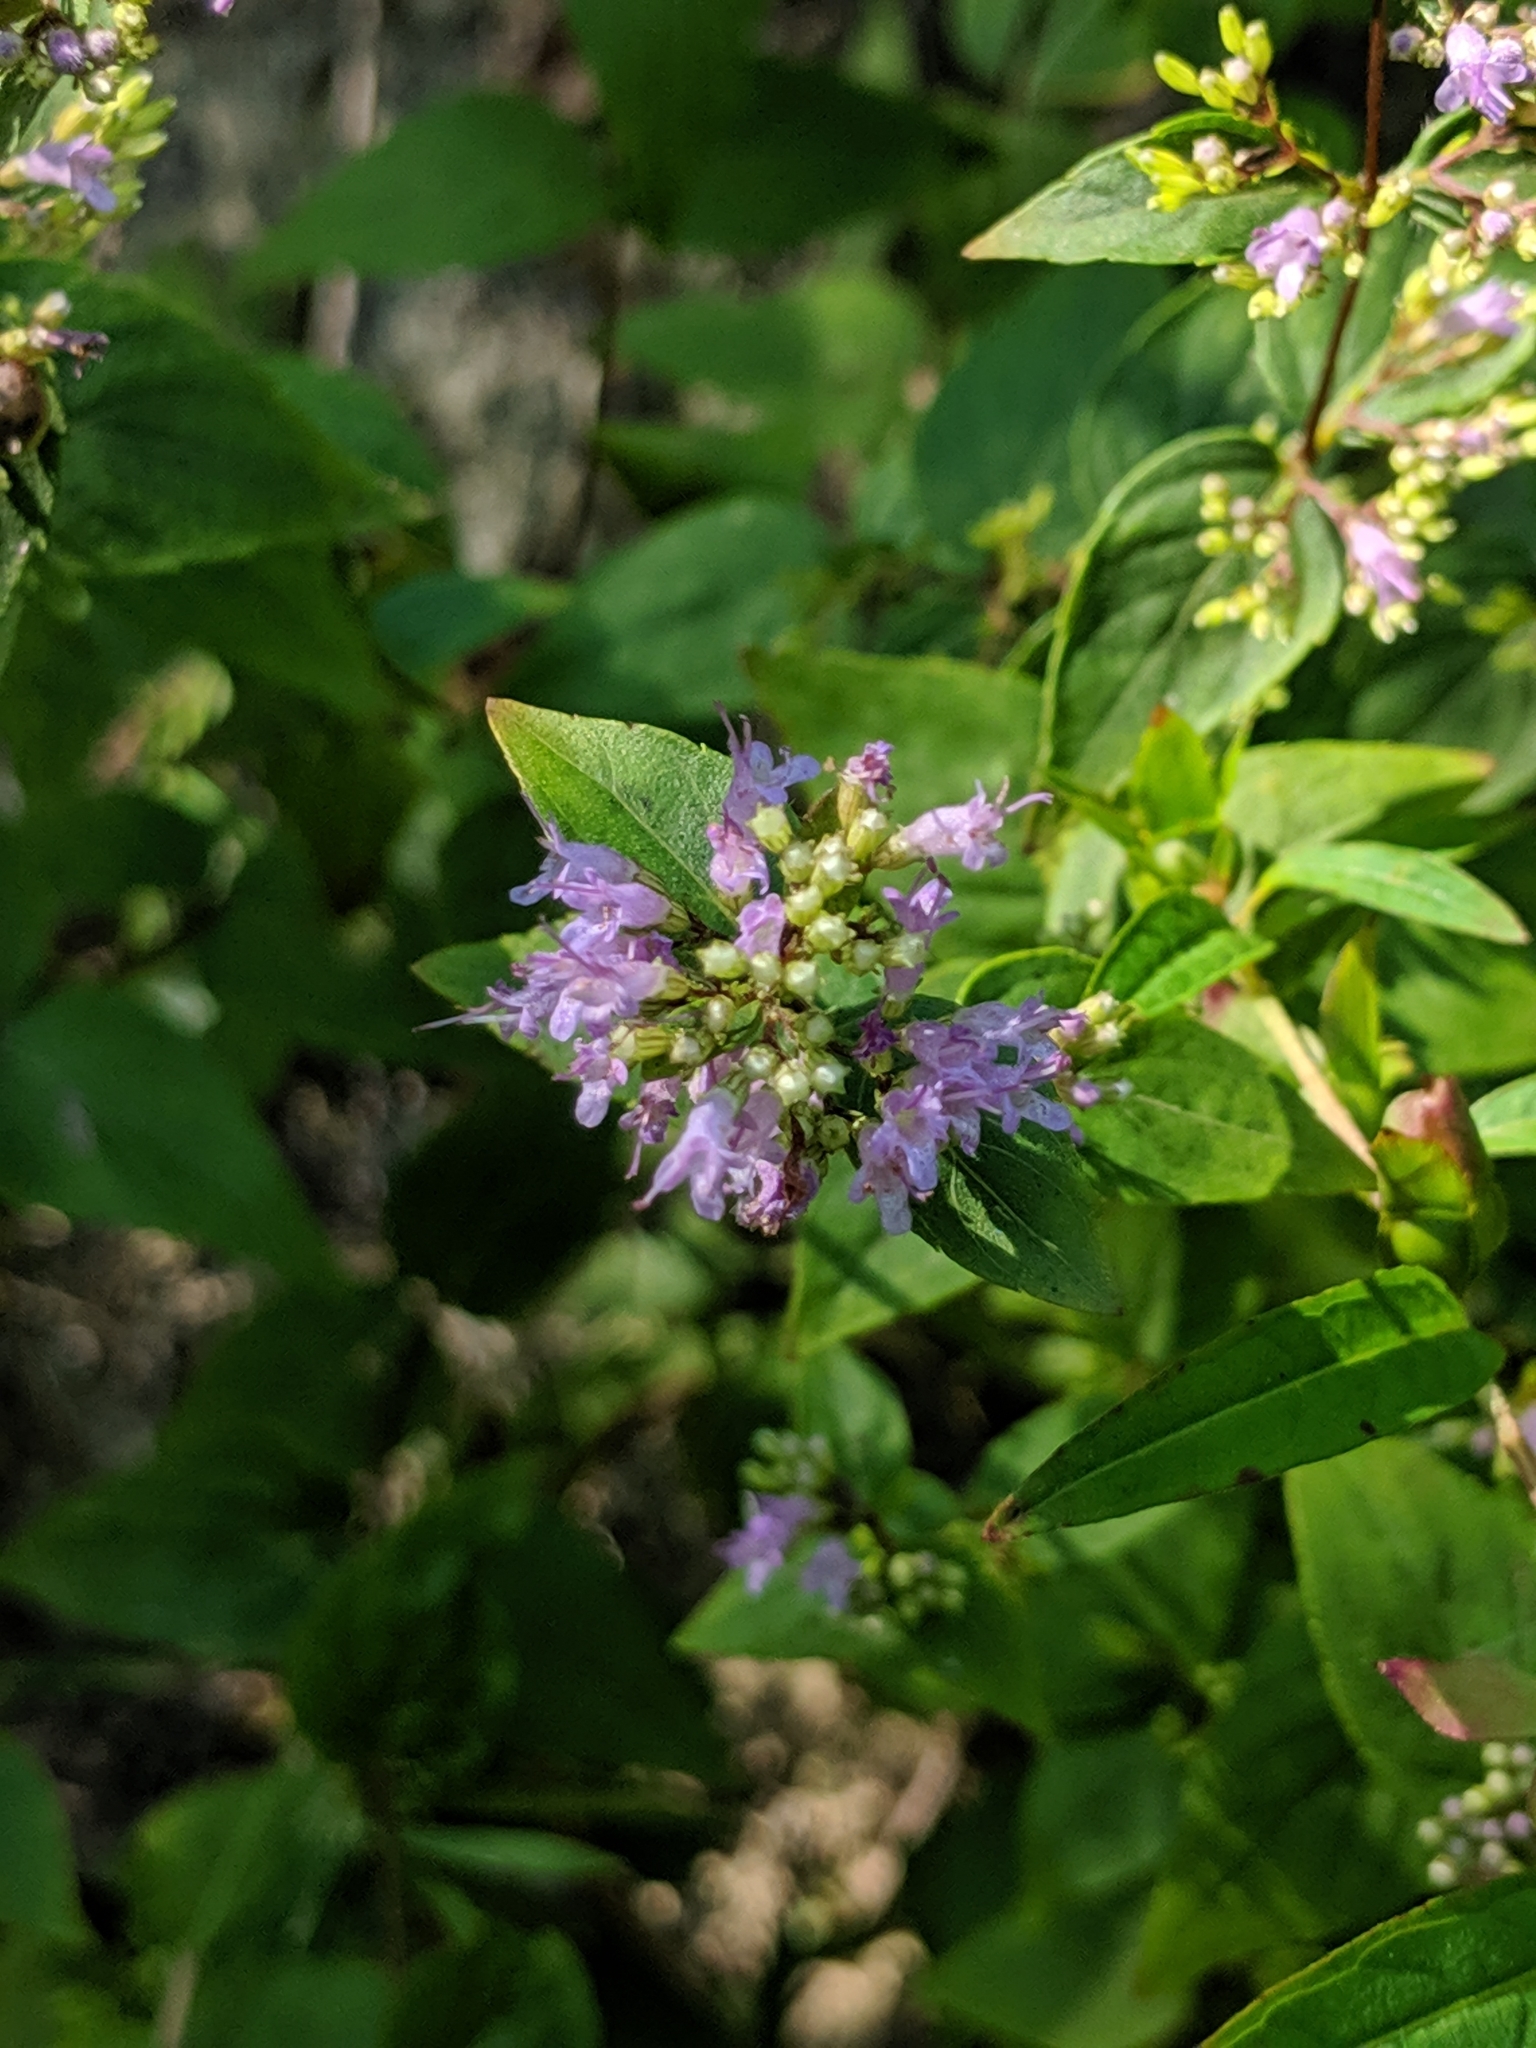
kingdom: Plantae
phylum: Tracheophyta
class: Magnoliopsida
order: Lamiales
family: Lamiaceae
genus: Cunila
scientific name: Cunila origanoides
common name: American dittany
